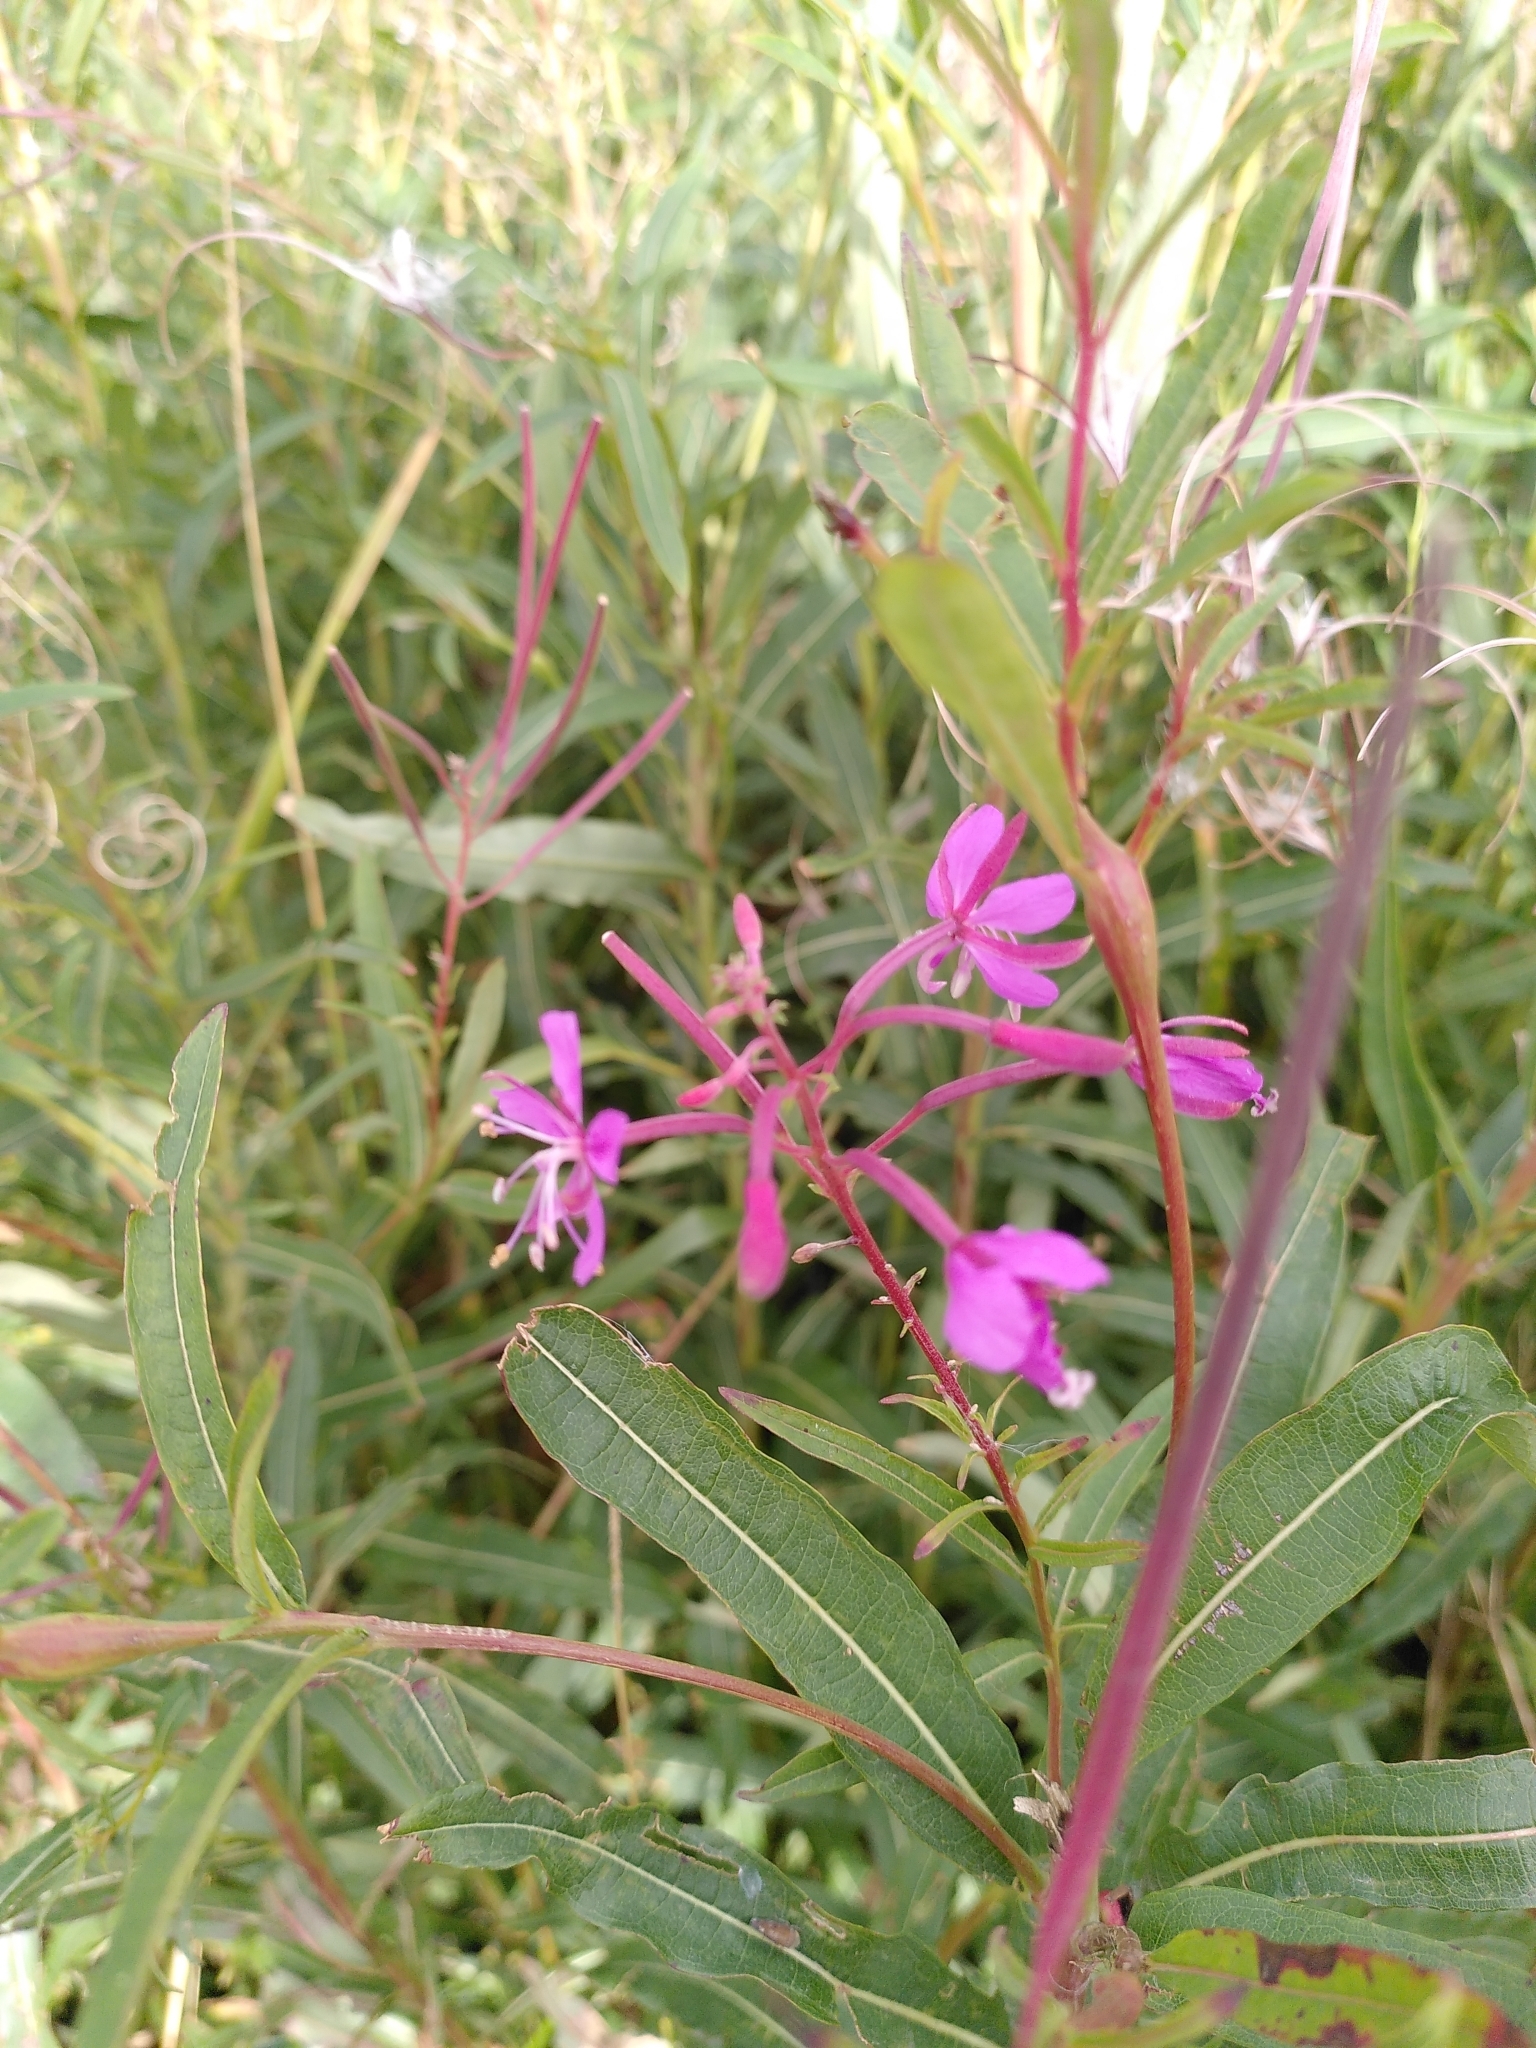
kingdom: Plantae
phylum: Tracheophyta
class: Magnoliopsida
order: Myrtales
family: Onagraceae
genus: Chamaenerion
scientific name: Chamaenerion angustifolium
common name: Fireweed
